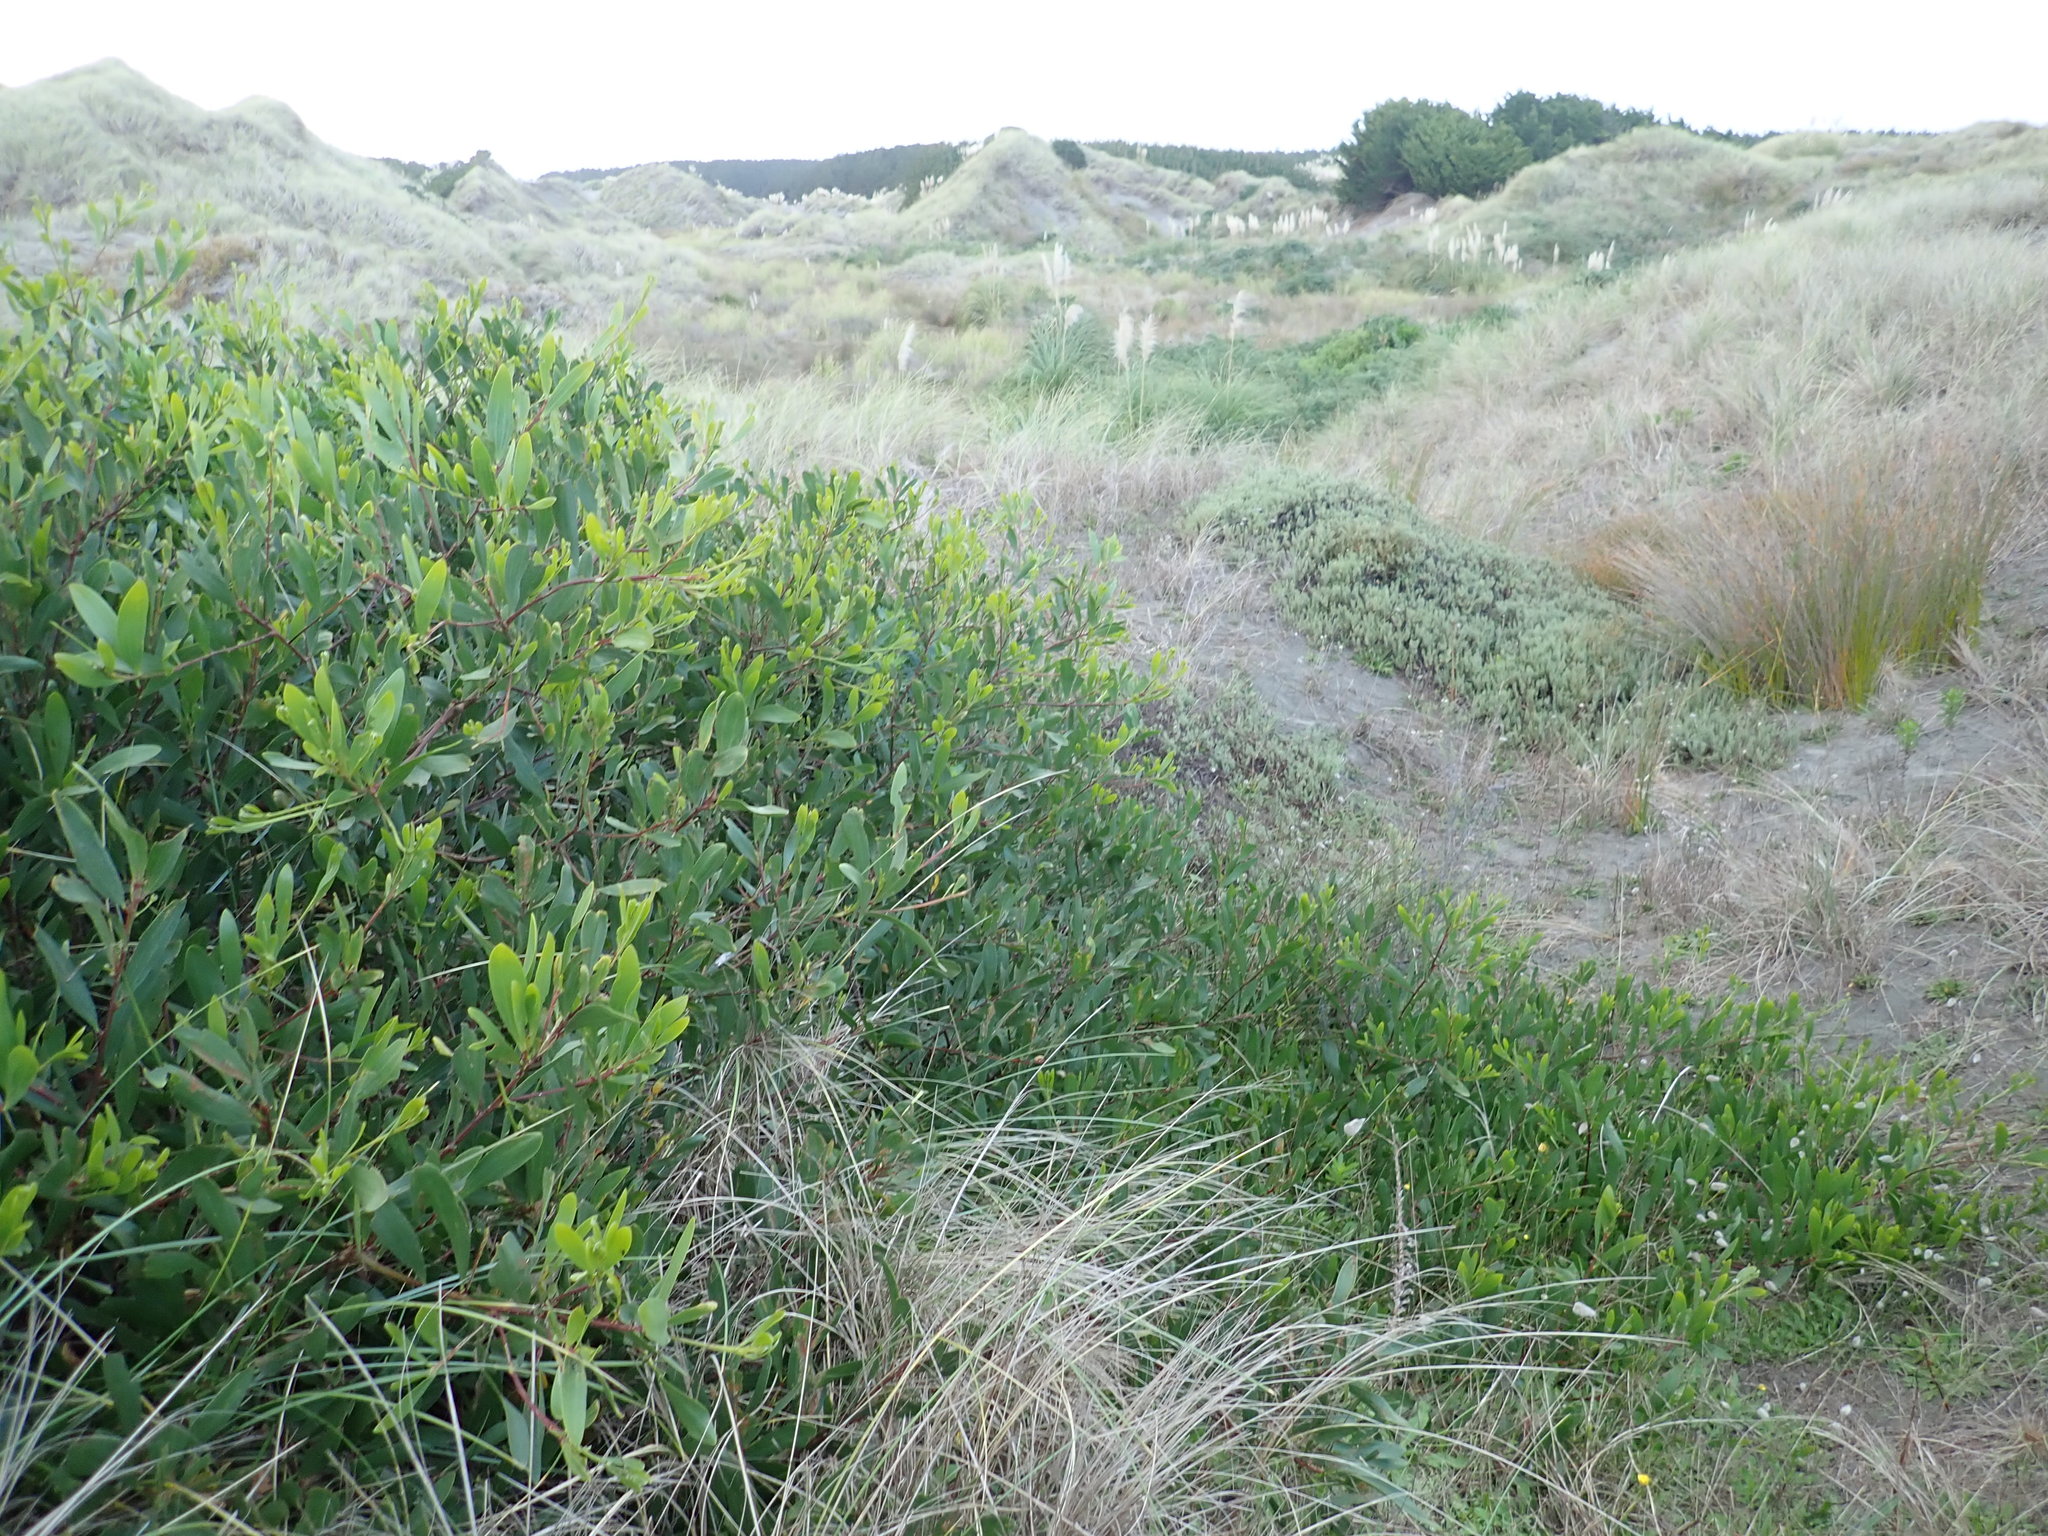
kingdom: Plantae
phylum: Tracheophyta
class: Magnoliopsida
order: Fabales
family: Fabaceae
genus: Acacia
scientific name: Acacia longifolia
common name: Sydney golden wattle
